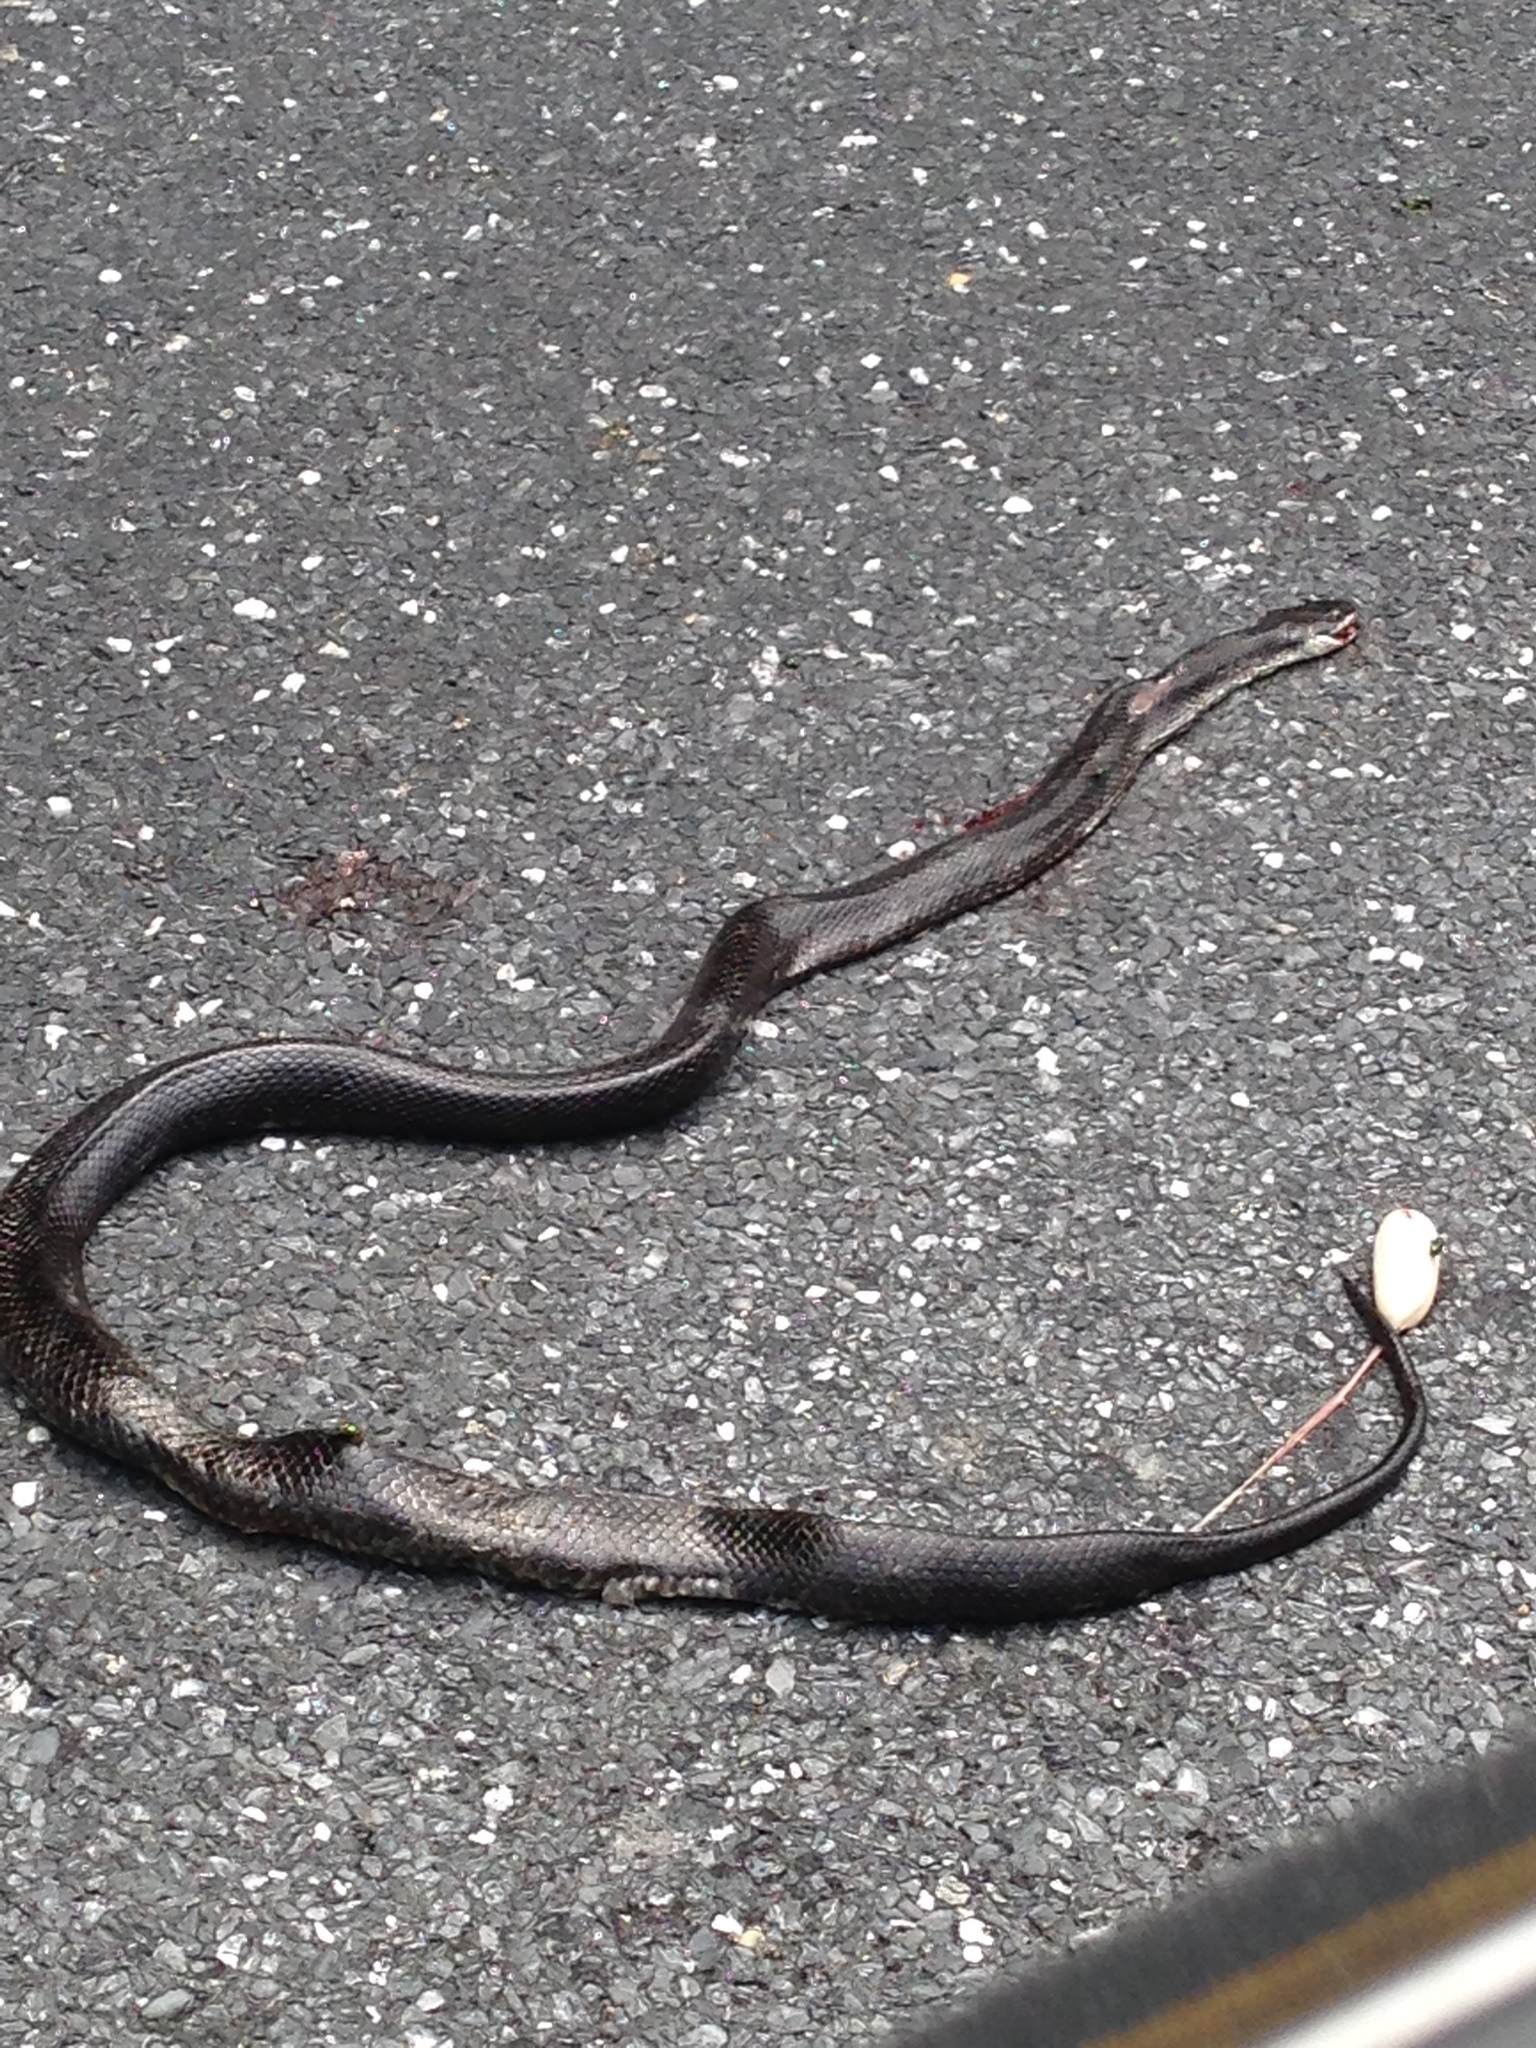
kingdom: Animalia
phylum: Chordata
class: Squamata
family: Colubridae
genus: Pantherophis
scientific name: Pantherophis alleghaniensis
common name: Eastern rat snake
